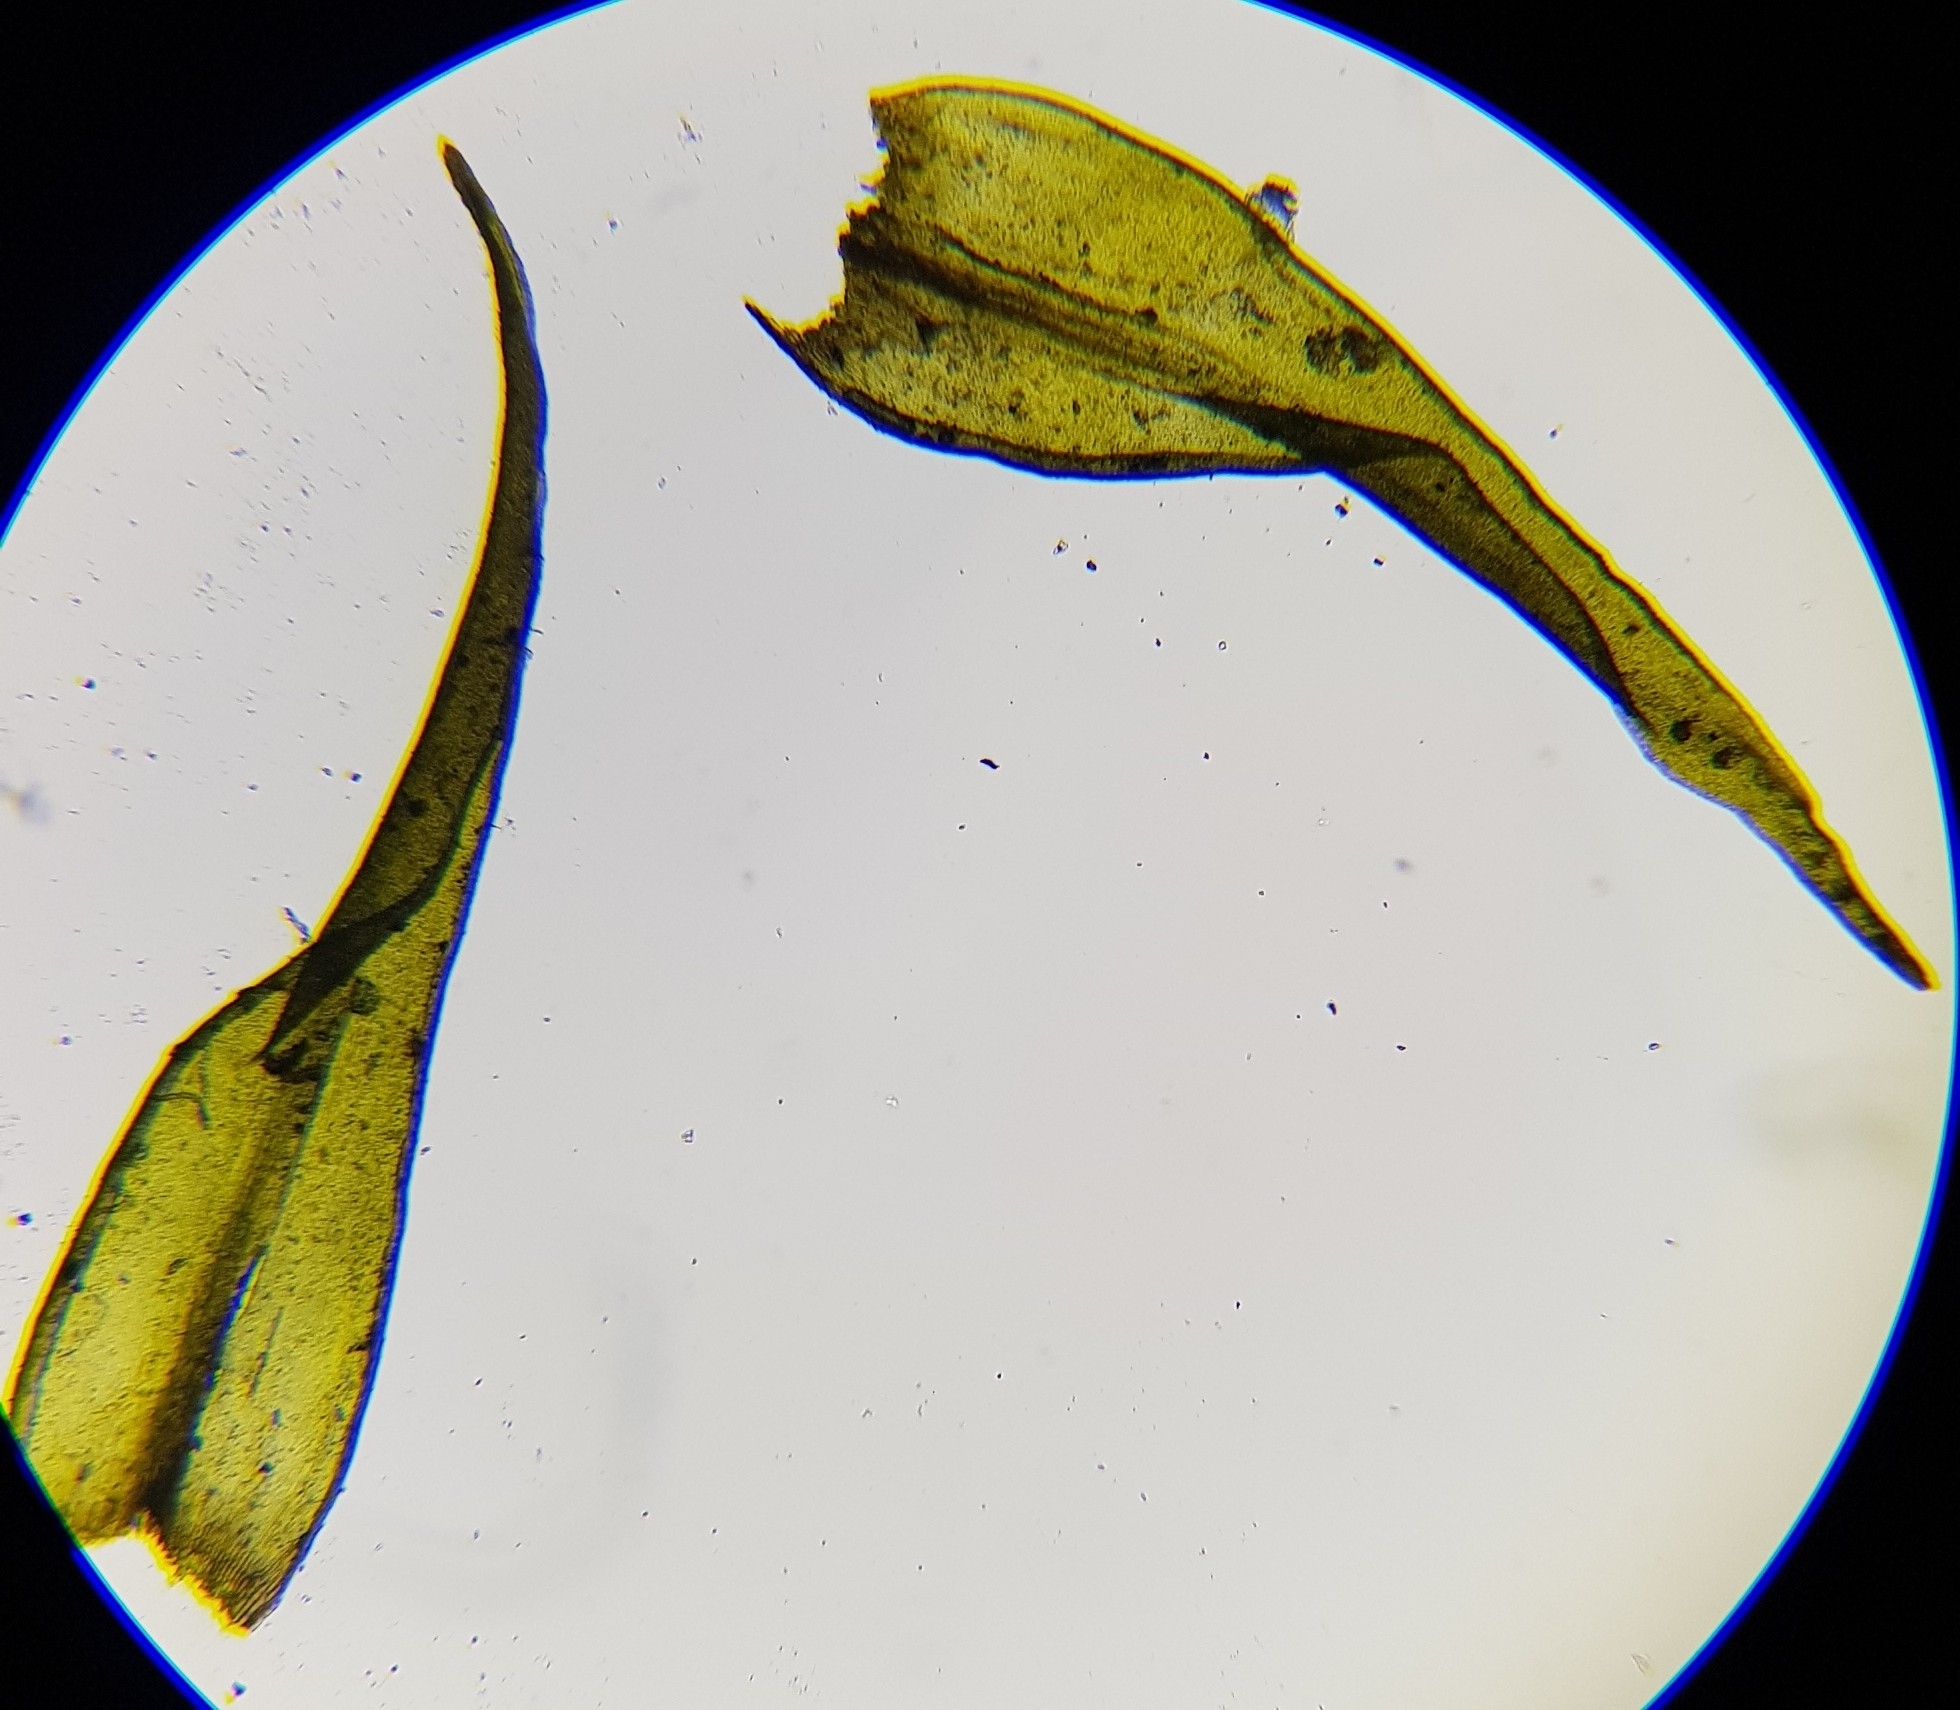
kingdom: Plantae
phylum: Bryophyta
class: Bryopsida
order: Grimmiales
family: Grimmiaceae
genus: Dilutineuron
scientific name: Dilutineuron fasciculare
